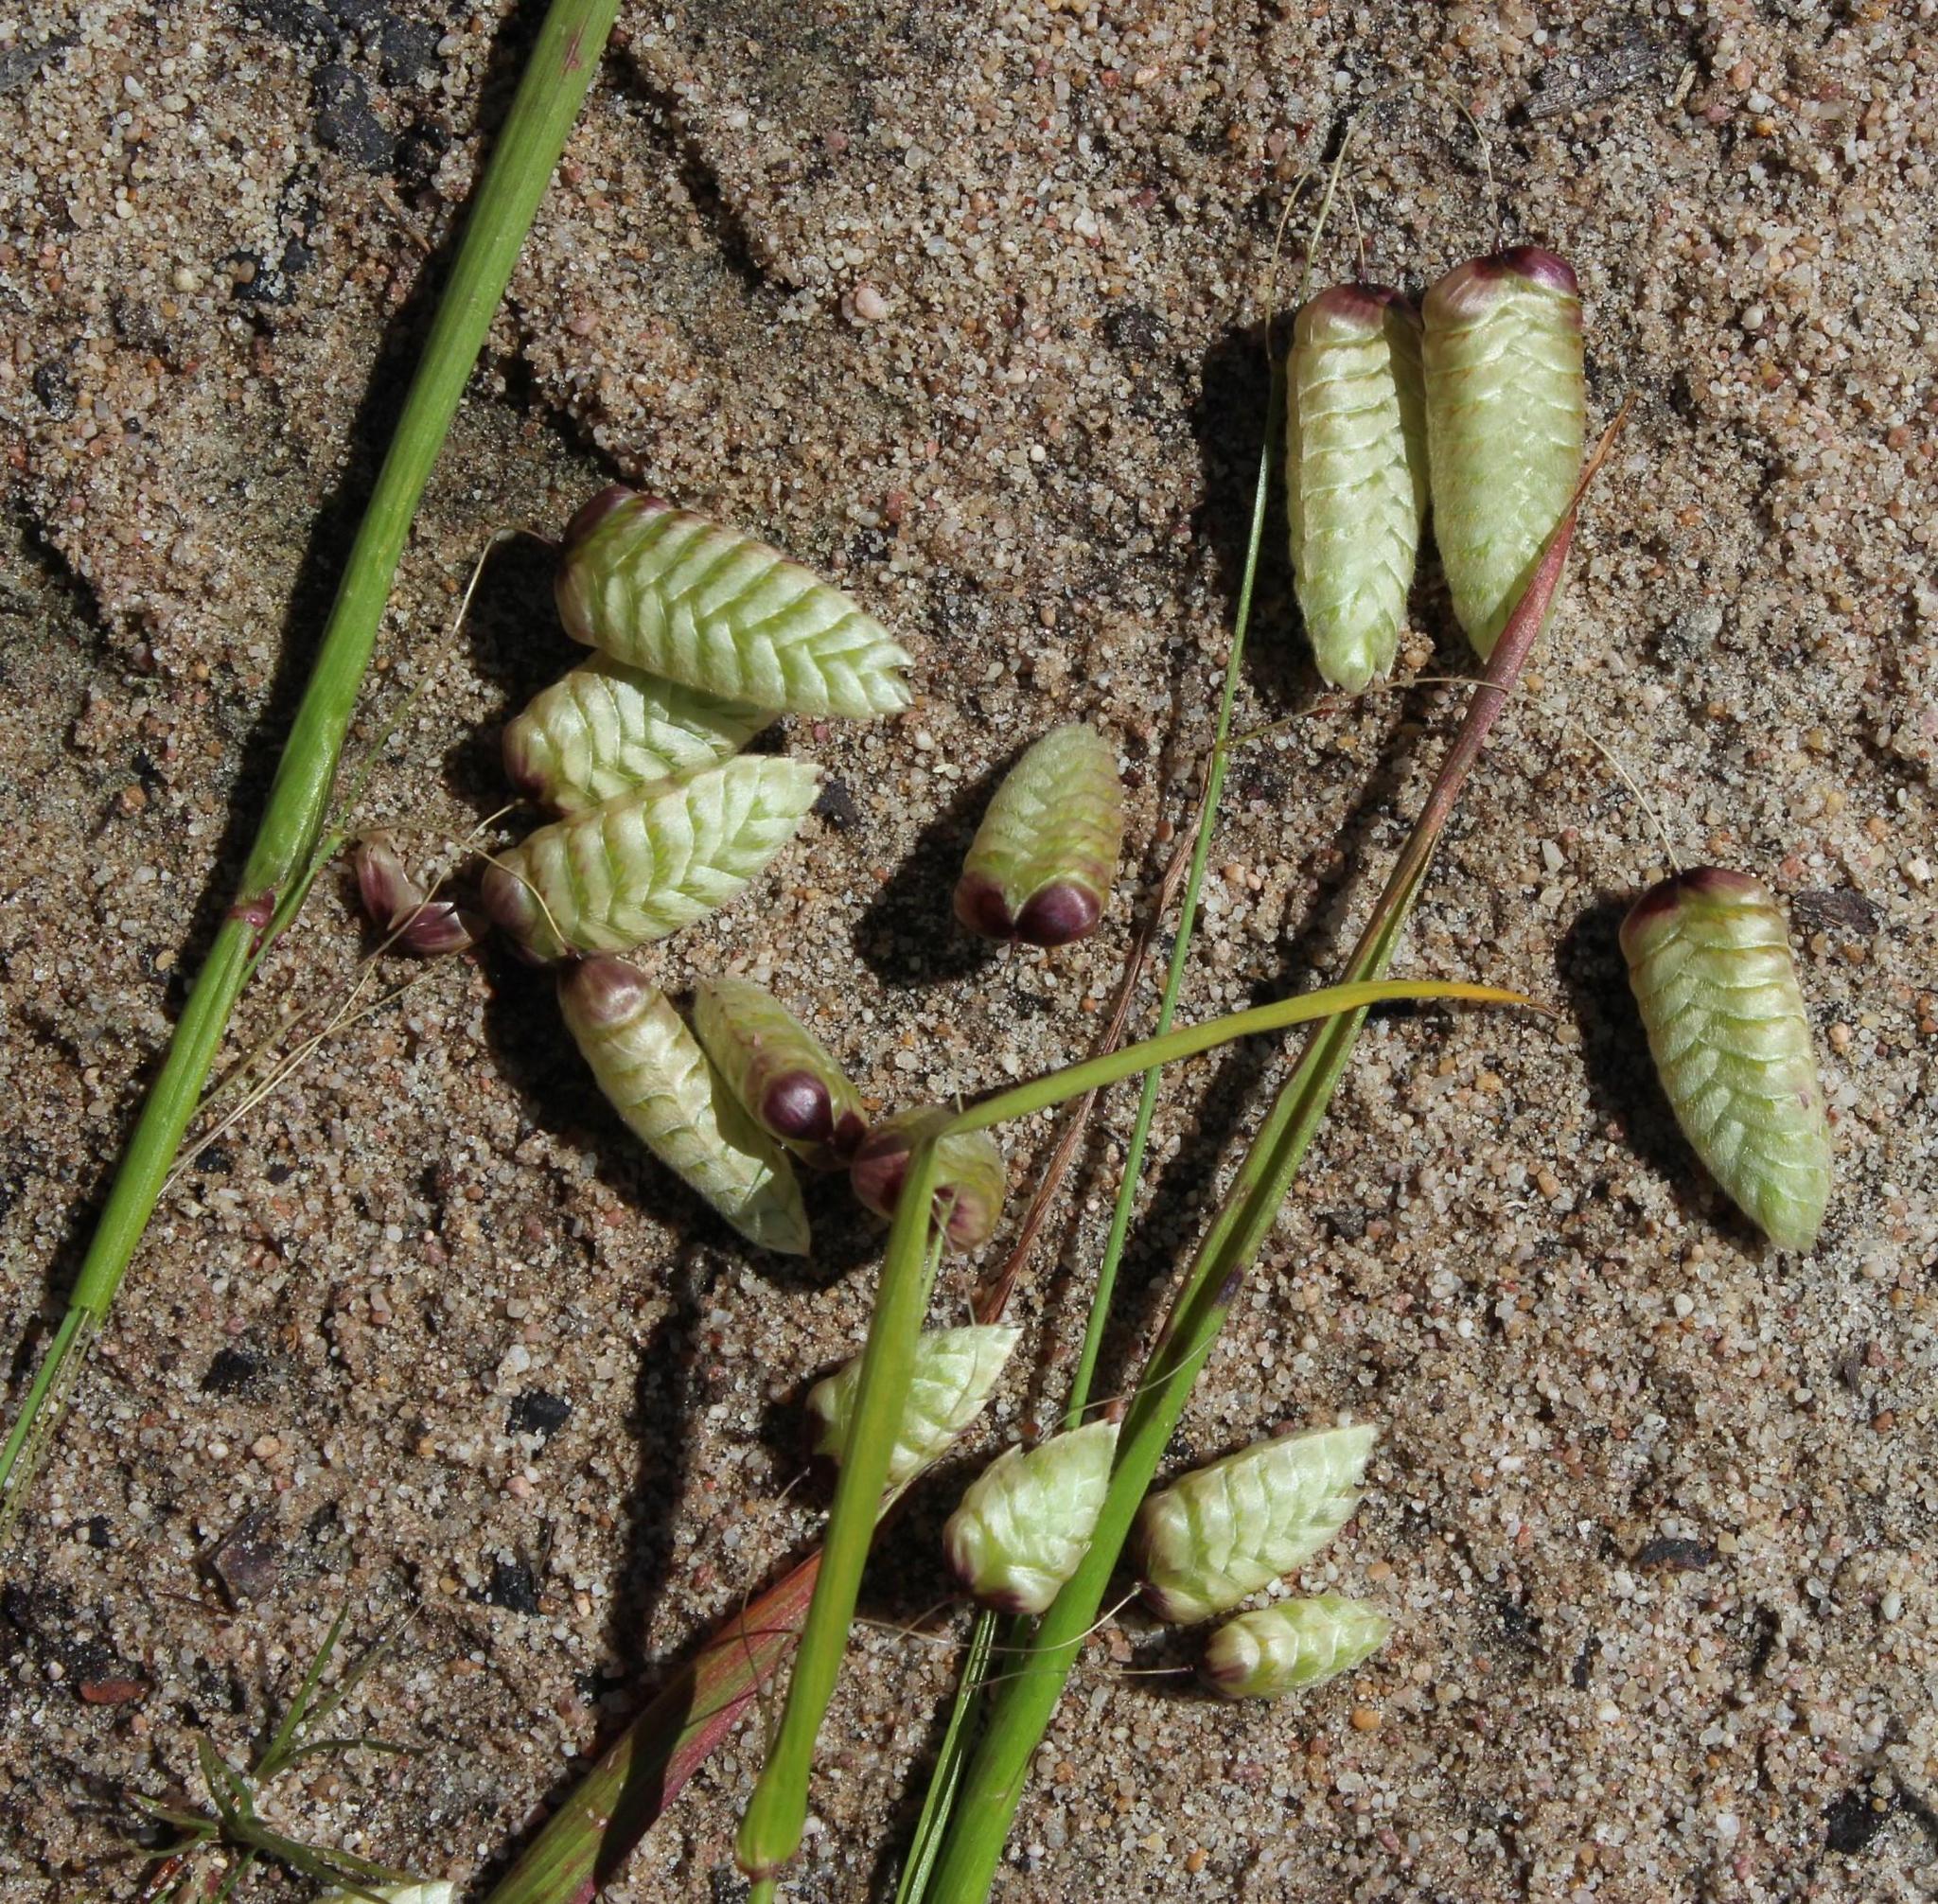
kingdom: Plantae
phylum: Tracheophyta
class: Liliopsida
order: Poales
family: Poaceae
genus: Briza
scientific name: Briza maxima
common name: Big quakinggrass
